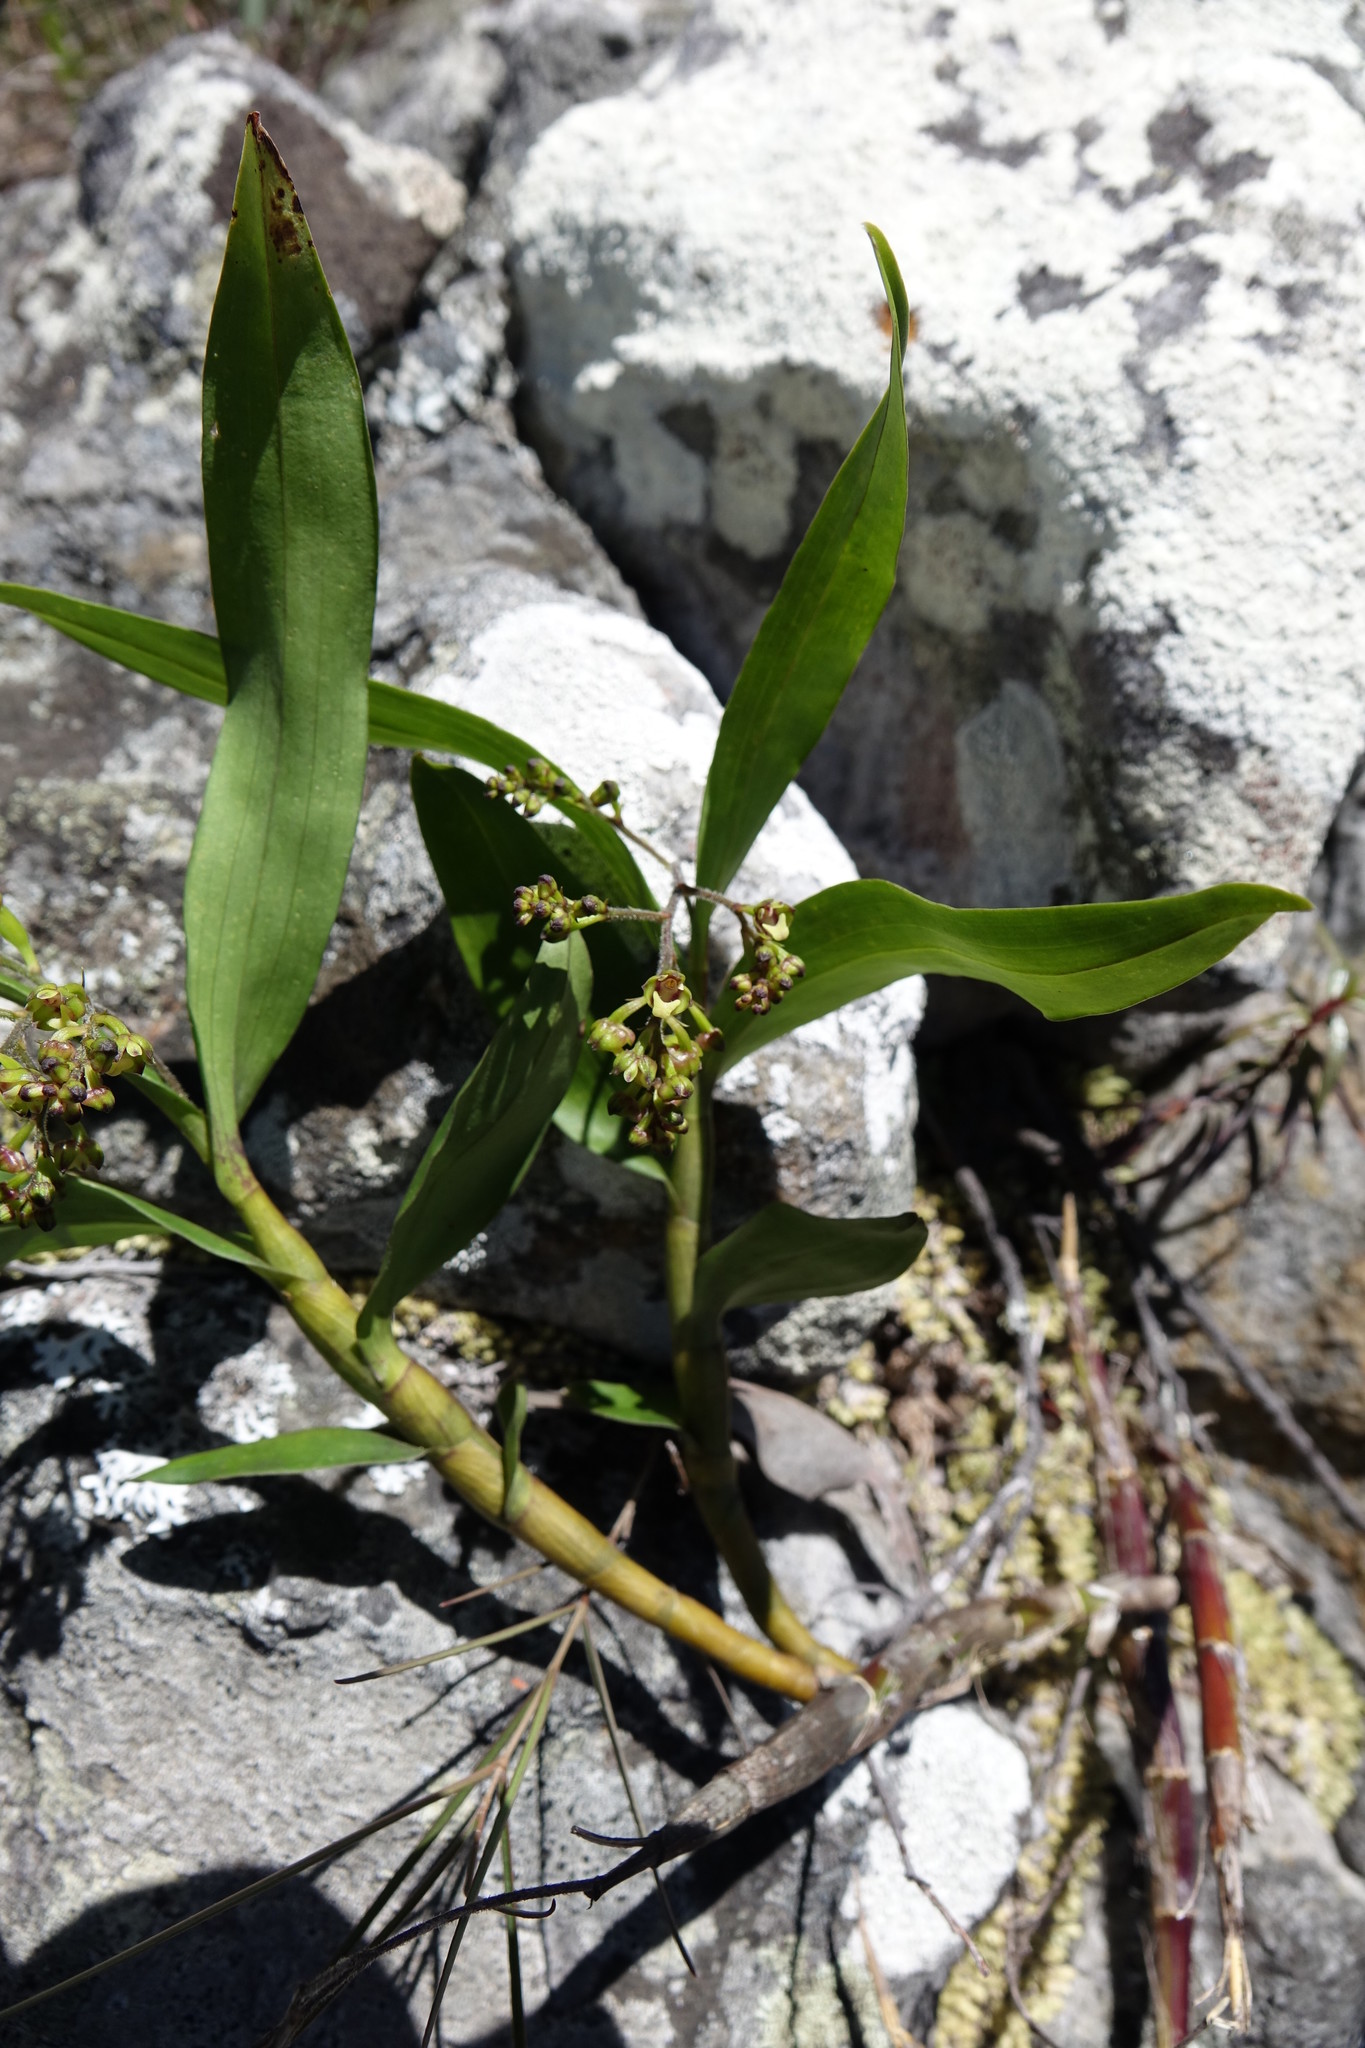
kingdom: Plantae
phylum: Tracheophyta
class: Liliopsida
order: Asparagales
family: Orchidaceae
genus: Polystachya
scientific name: Polystachya fusiformis
